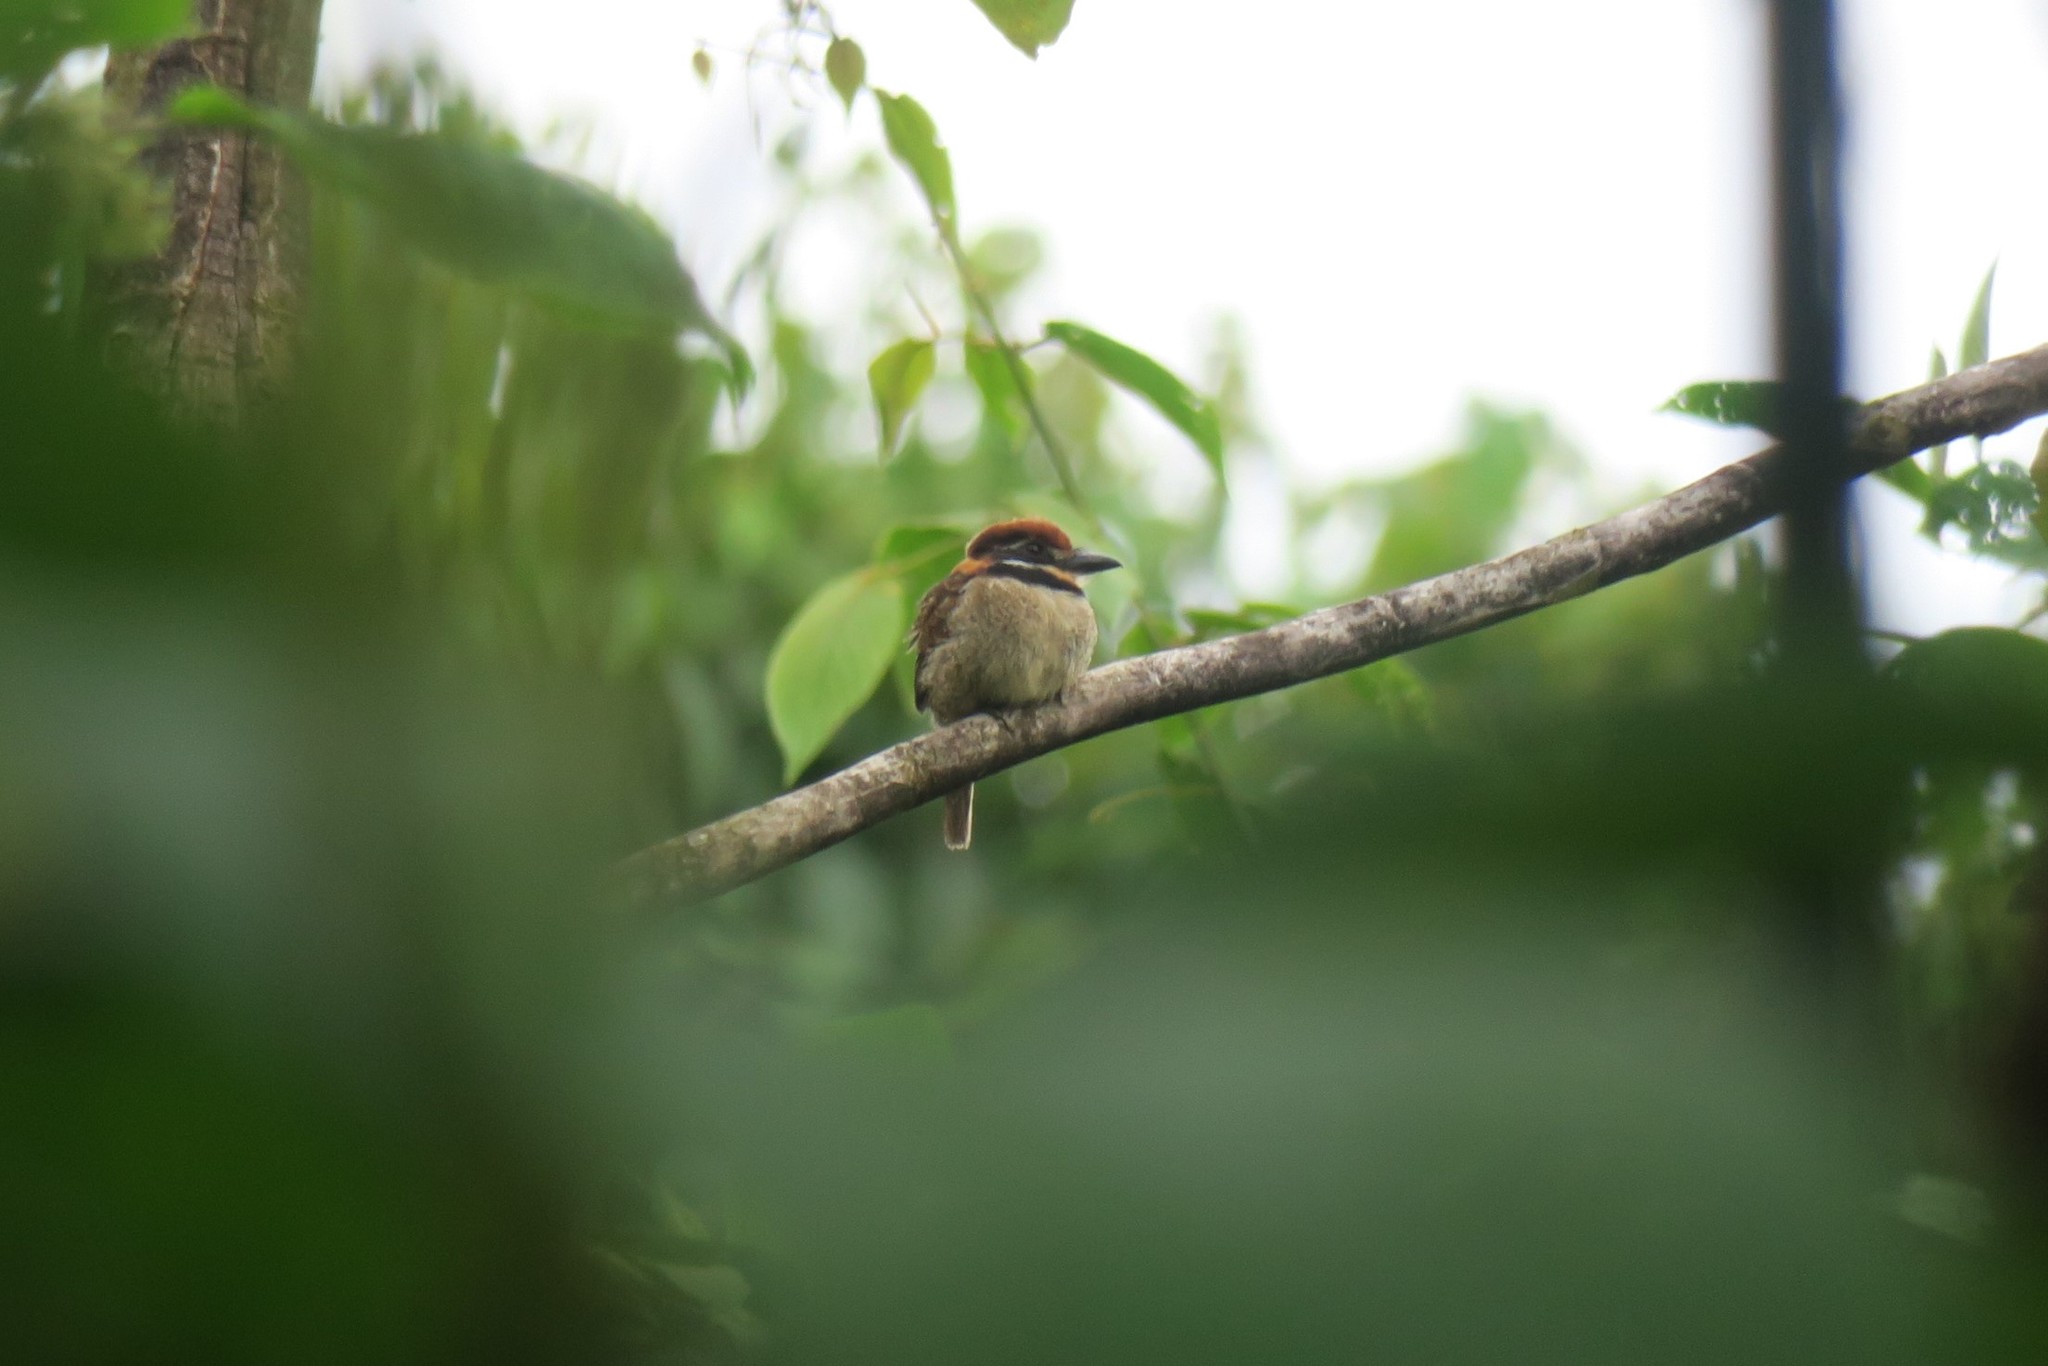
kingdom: Animalia
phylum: Chordata
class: Aves
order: Piciformes
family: Bucconidae
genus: Bucco
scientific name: Bucco macrodactylus
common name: Chestnut-capped puffbird
